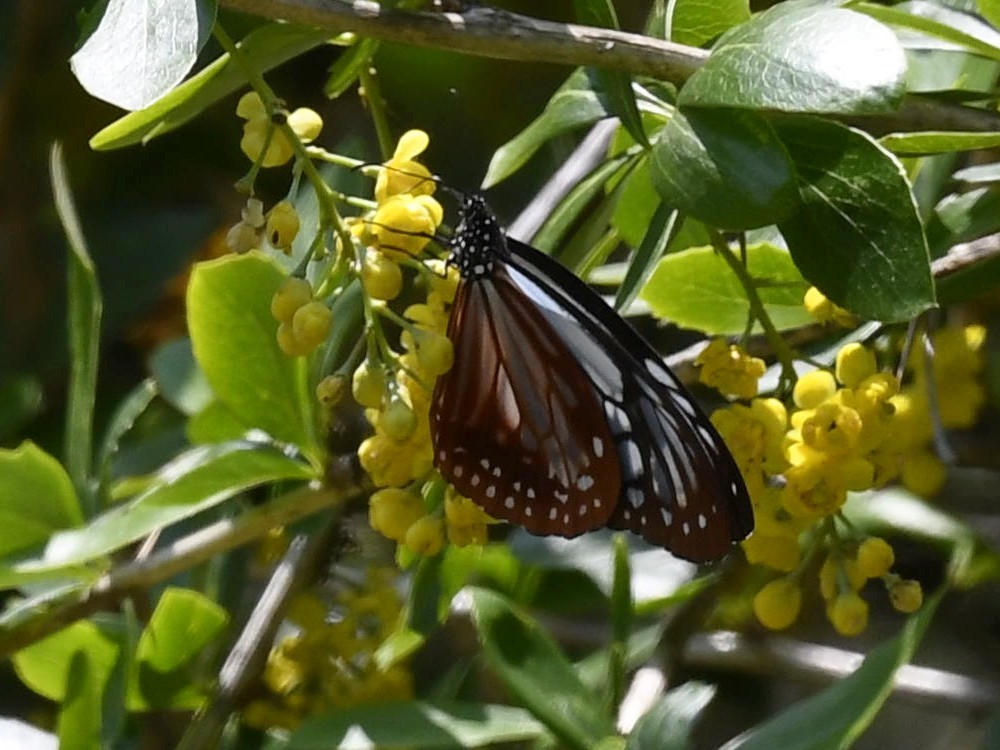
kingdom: Animalia
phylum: Arthropoda
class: Insecta
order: Lepidoptera
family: Nymphalidae
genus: Parantica
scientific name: Parantica sita
